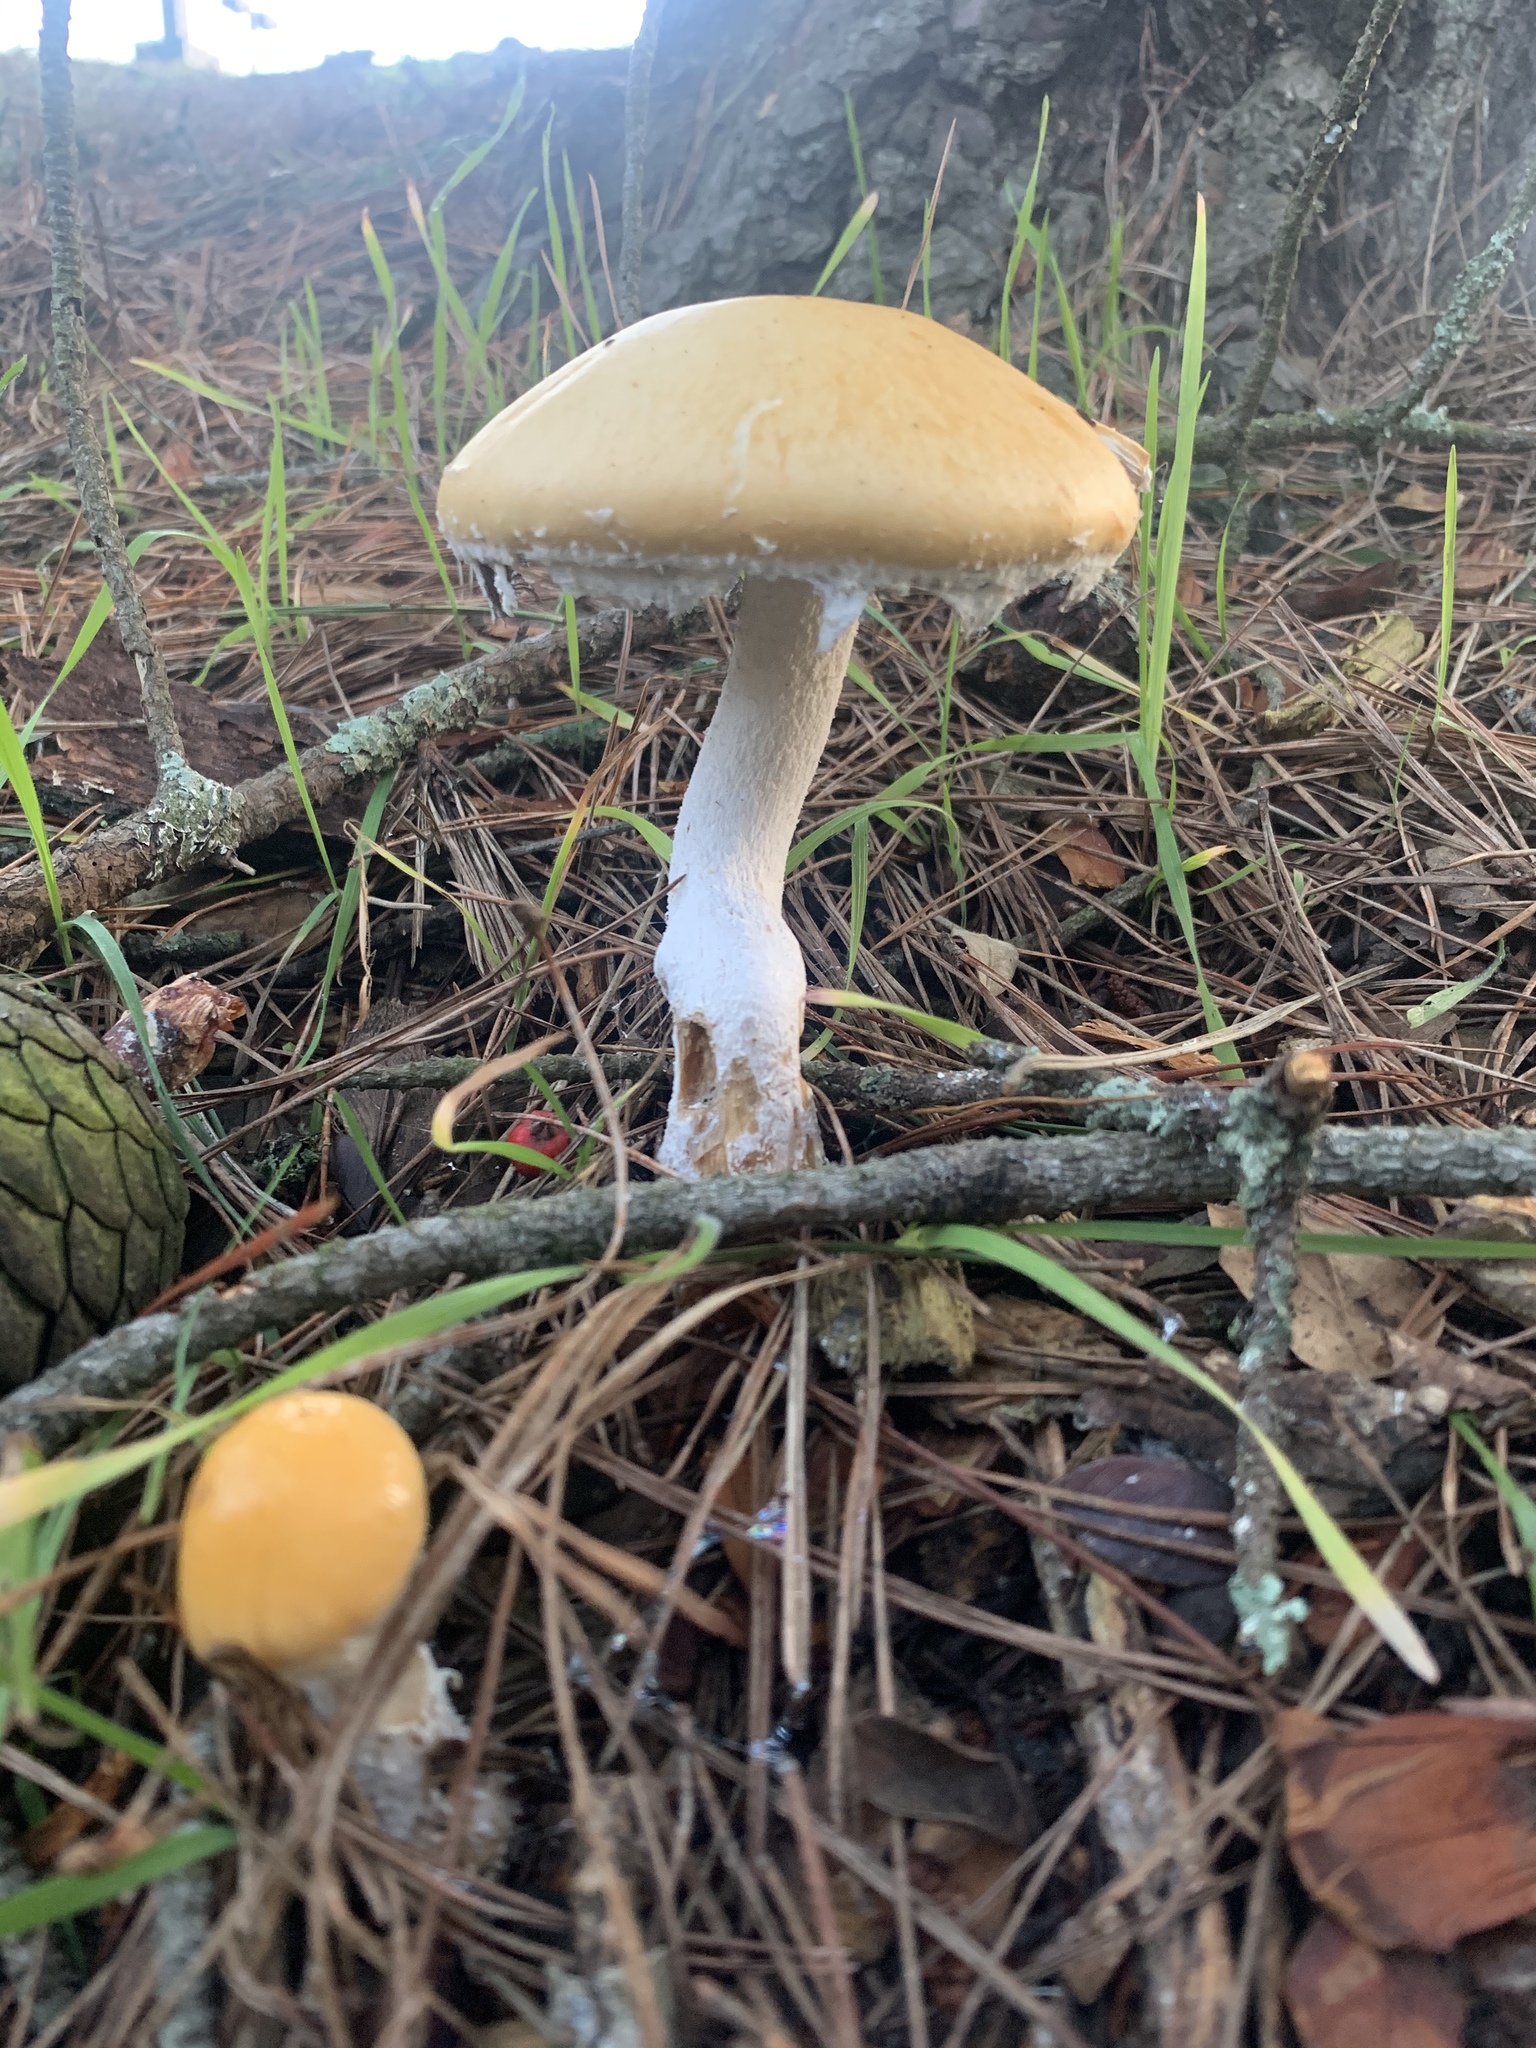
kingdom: Fungi
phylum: Basidiomycota
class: Agaricomycetes
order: Agaricales
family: Strophariaceae
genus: Stropharia
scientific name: Stropharia ambigua
